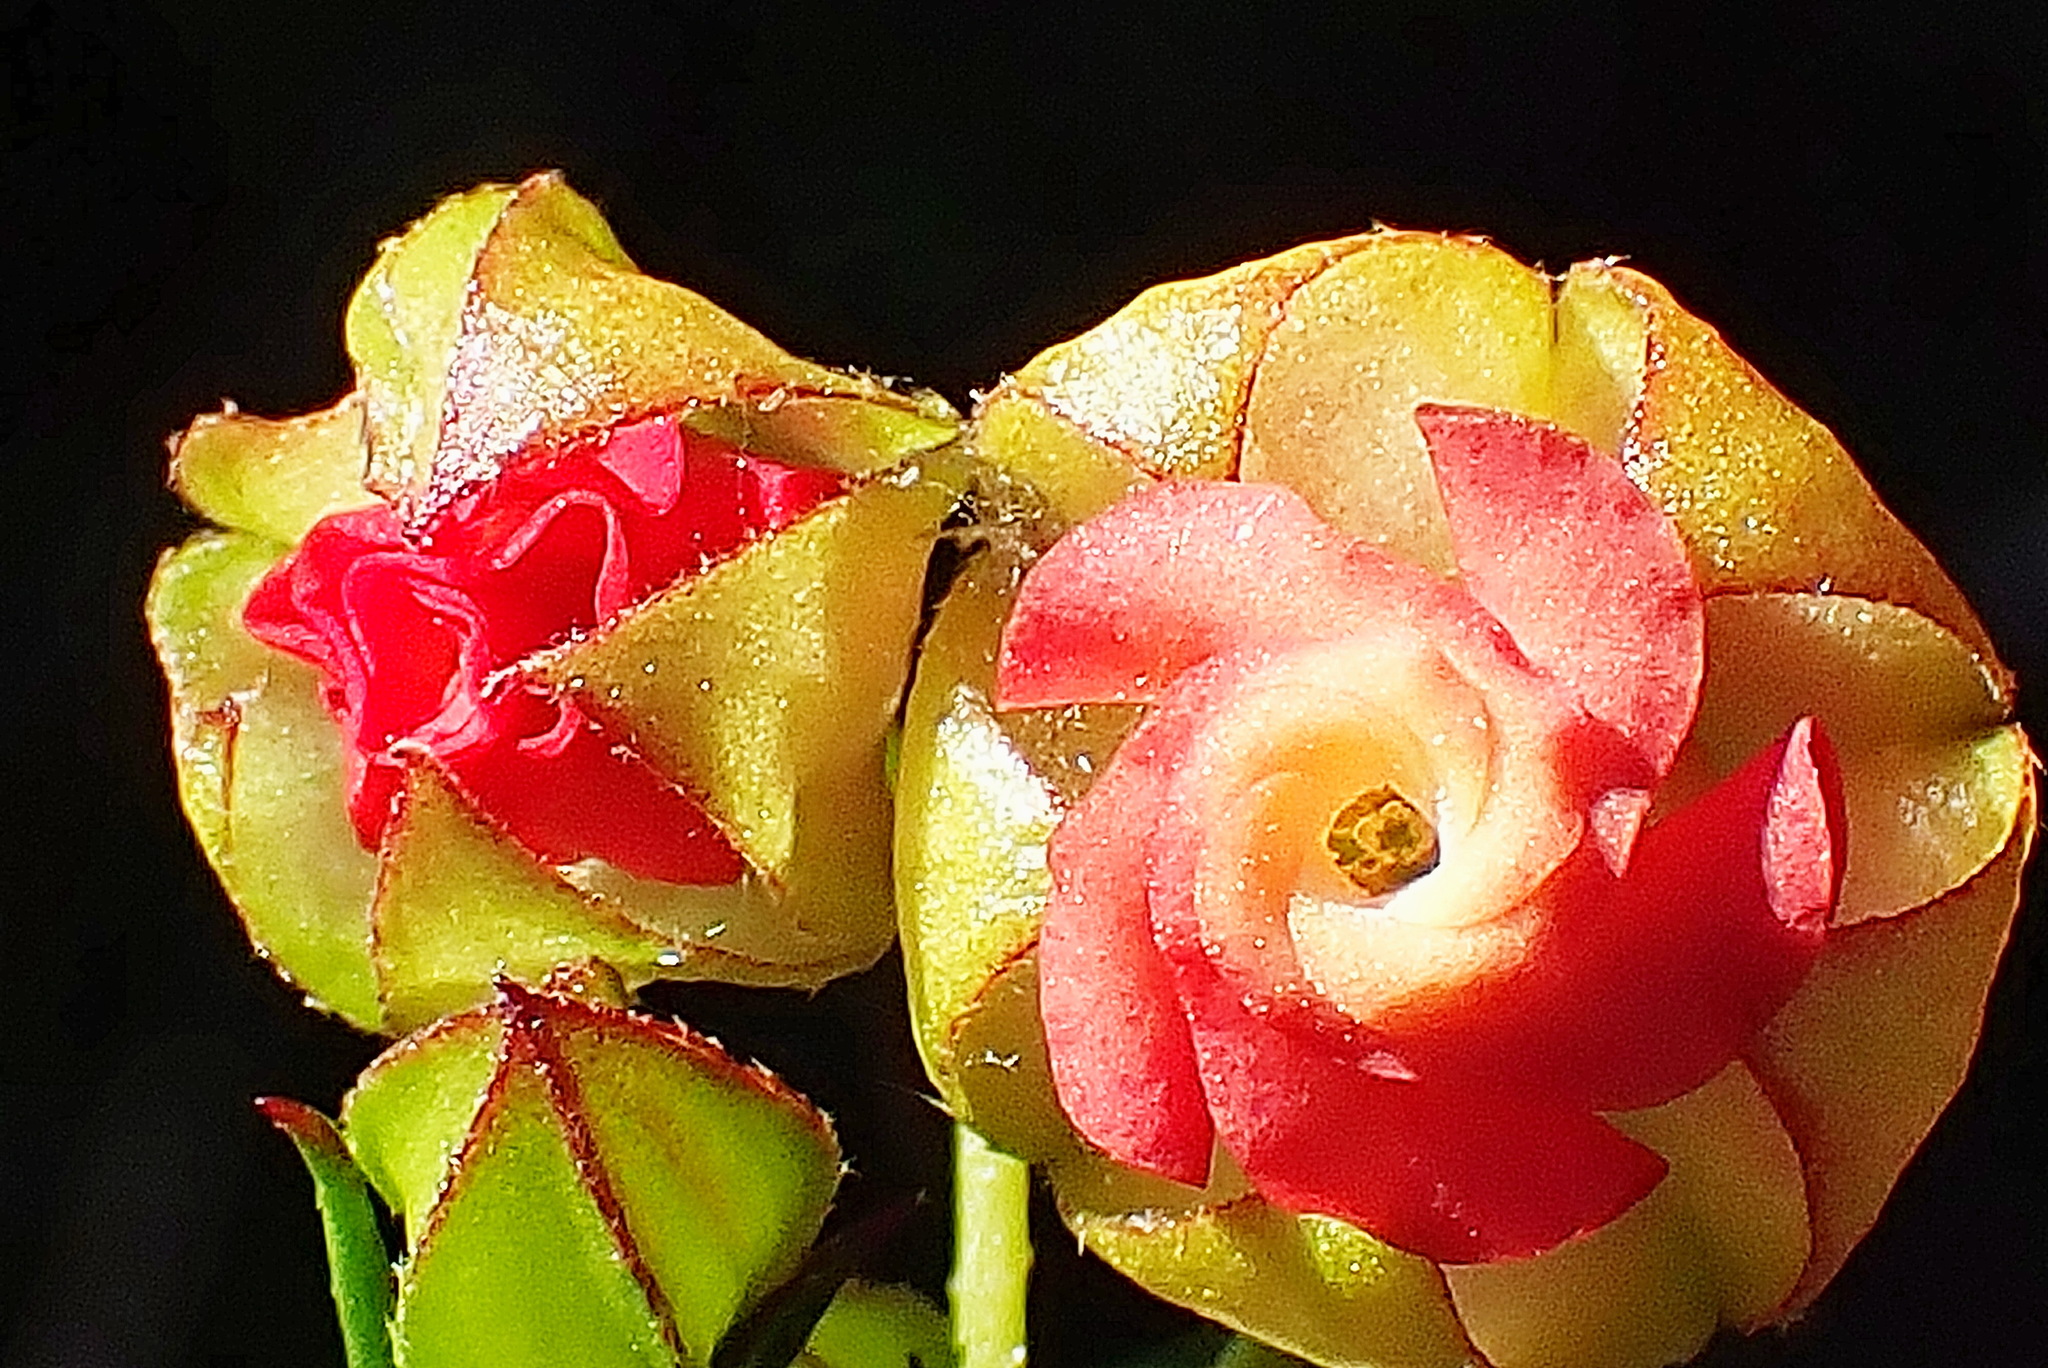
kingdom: Plantae
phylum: Tracheophyta
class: Magnoliopsida
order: Malvales
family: Malvaceae
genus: Hermannia
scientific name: Hermannia angularis
